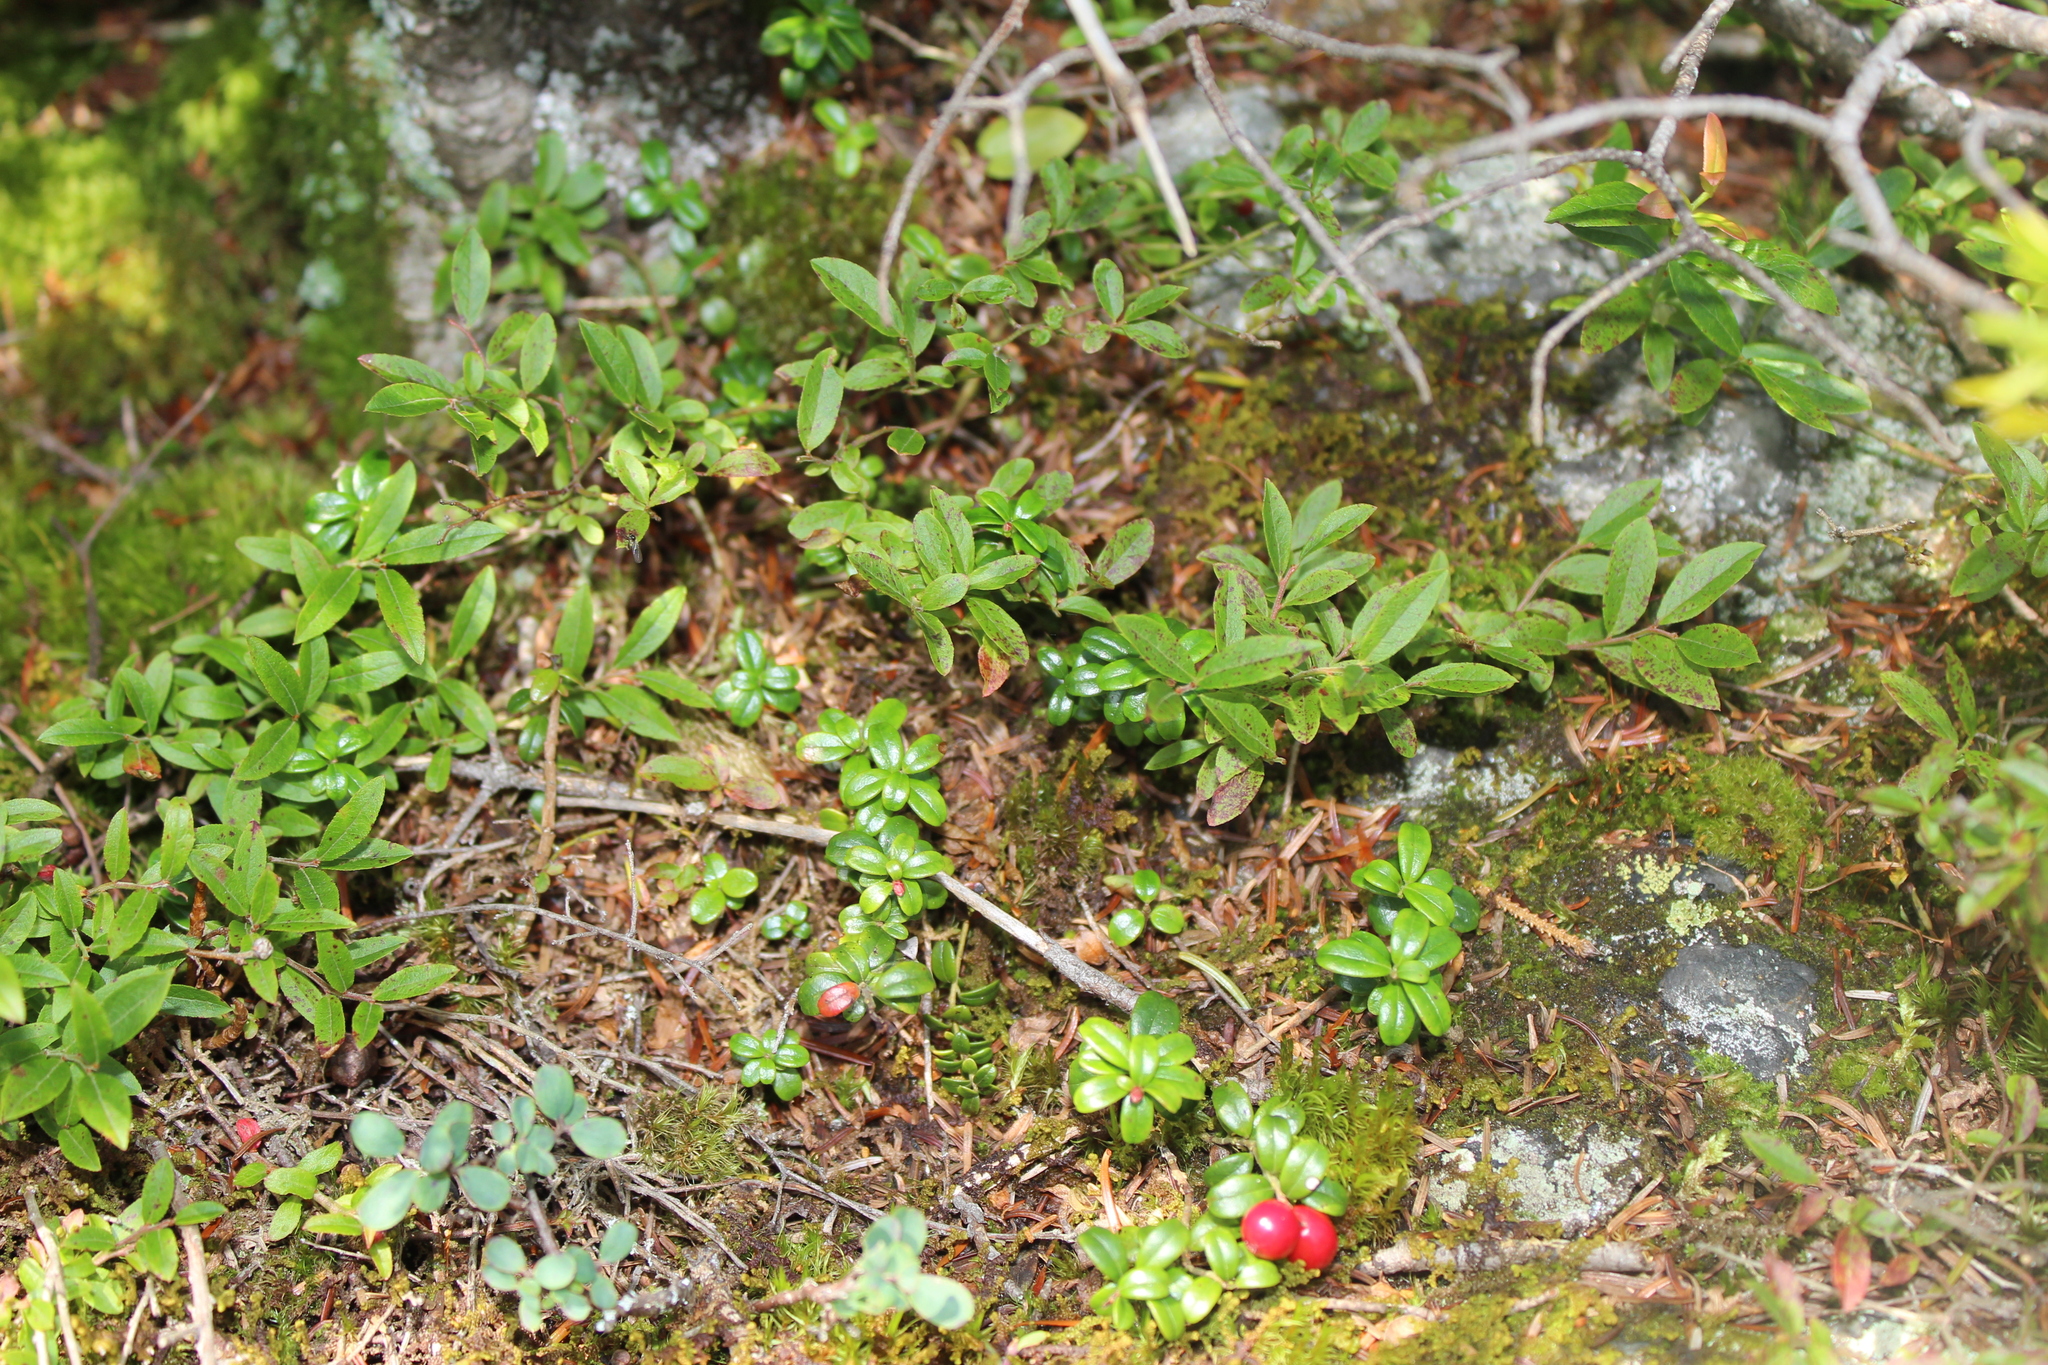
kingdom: Plantae
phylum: Tracheophyta
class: Magnoliopsida
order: Ericales
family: Ericaceae
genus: Vaccinium
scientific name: Vaccinium vitis-idaea
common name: Cowberry
